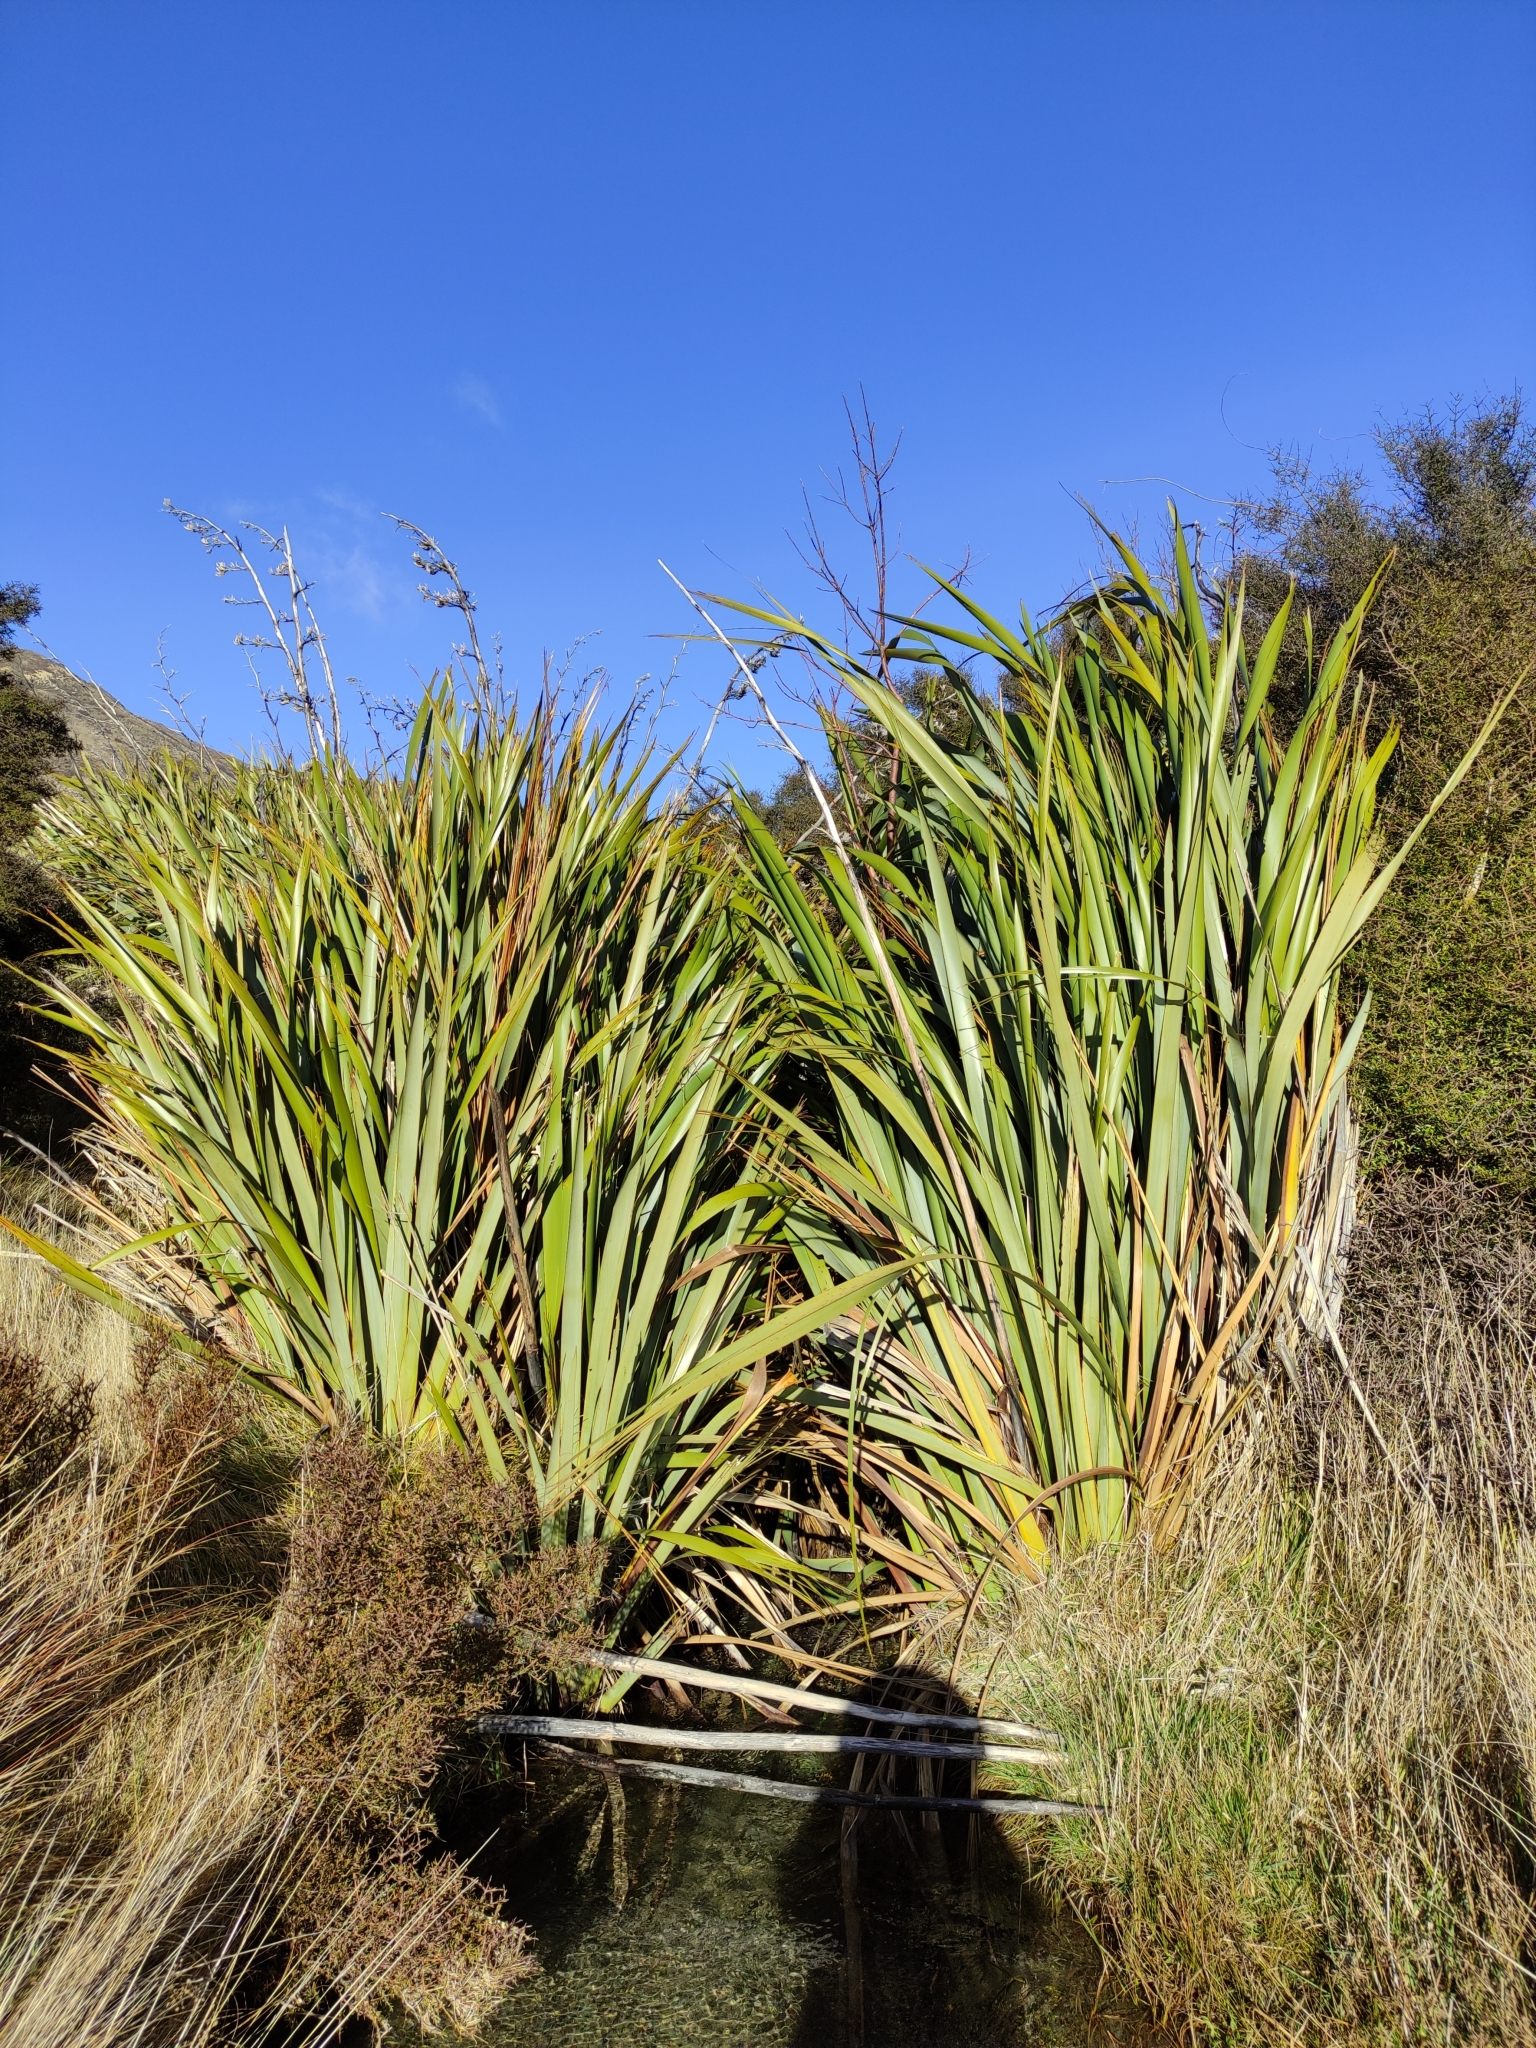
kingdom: Plantae
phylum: Tracheophyta
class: Liliopsida
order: Asparagales
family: Asphodelaceae
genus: Phormium
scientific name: Phormium tenax
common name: New zealand flax
